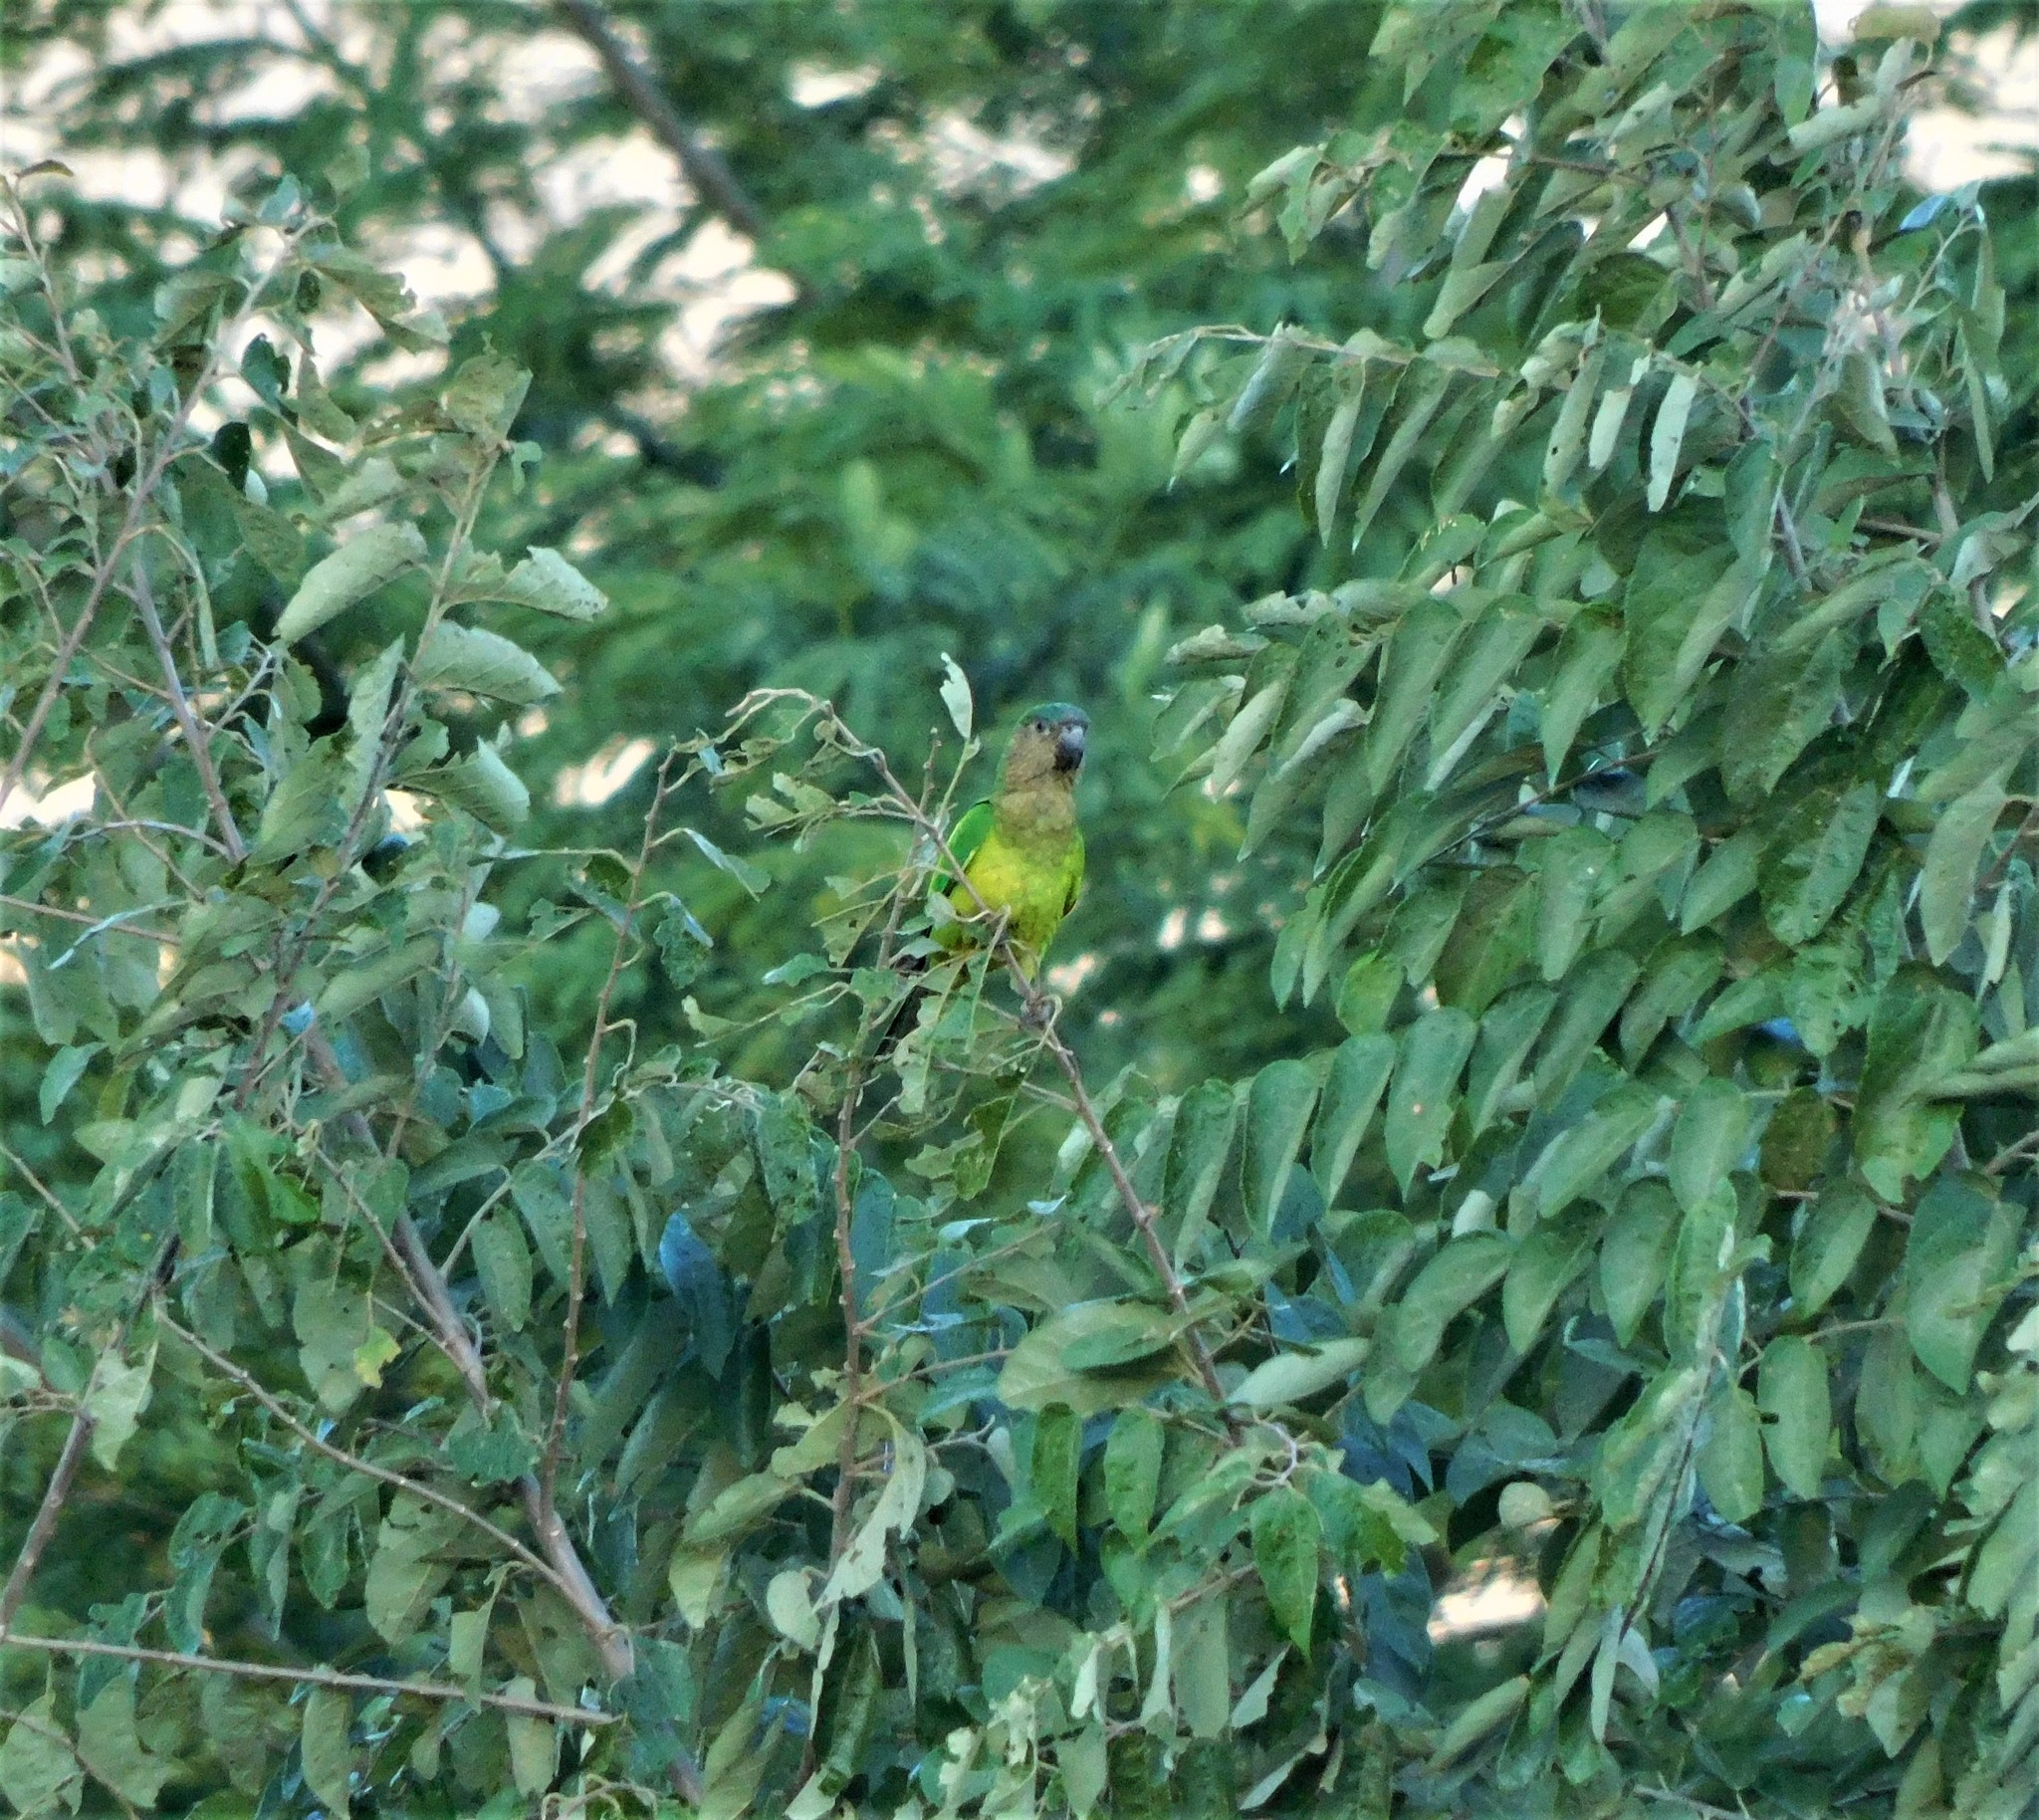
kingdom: Animalia
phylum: Chordata
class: Aves
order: Psittaciformes
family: Psittacidae
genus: Aratinga
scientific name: Aratinga pertinax
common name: Brown-throated parakeet
